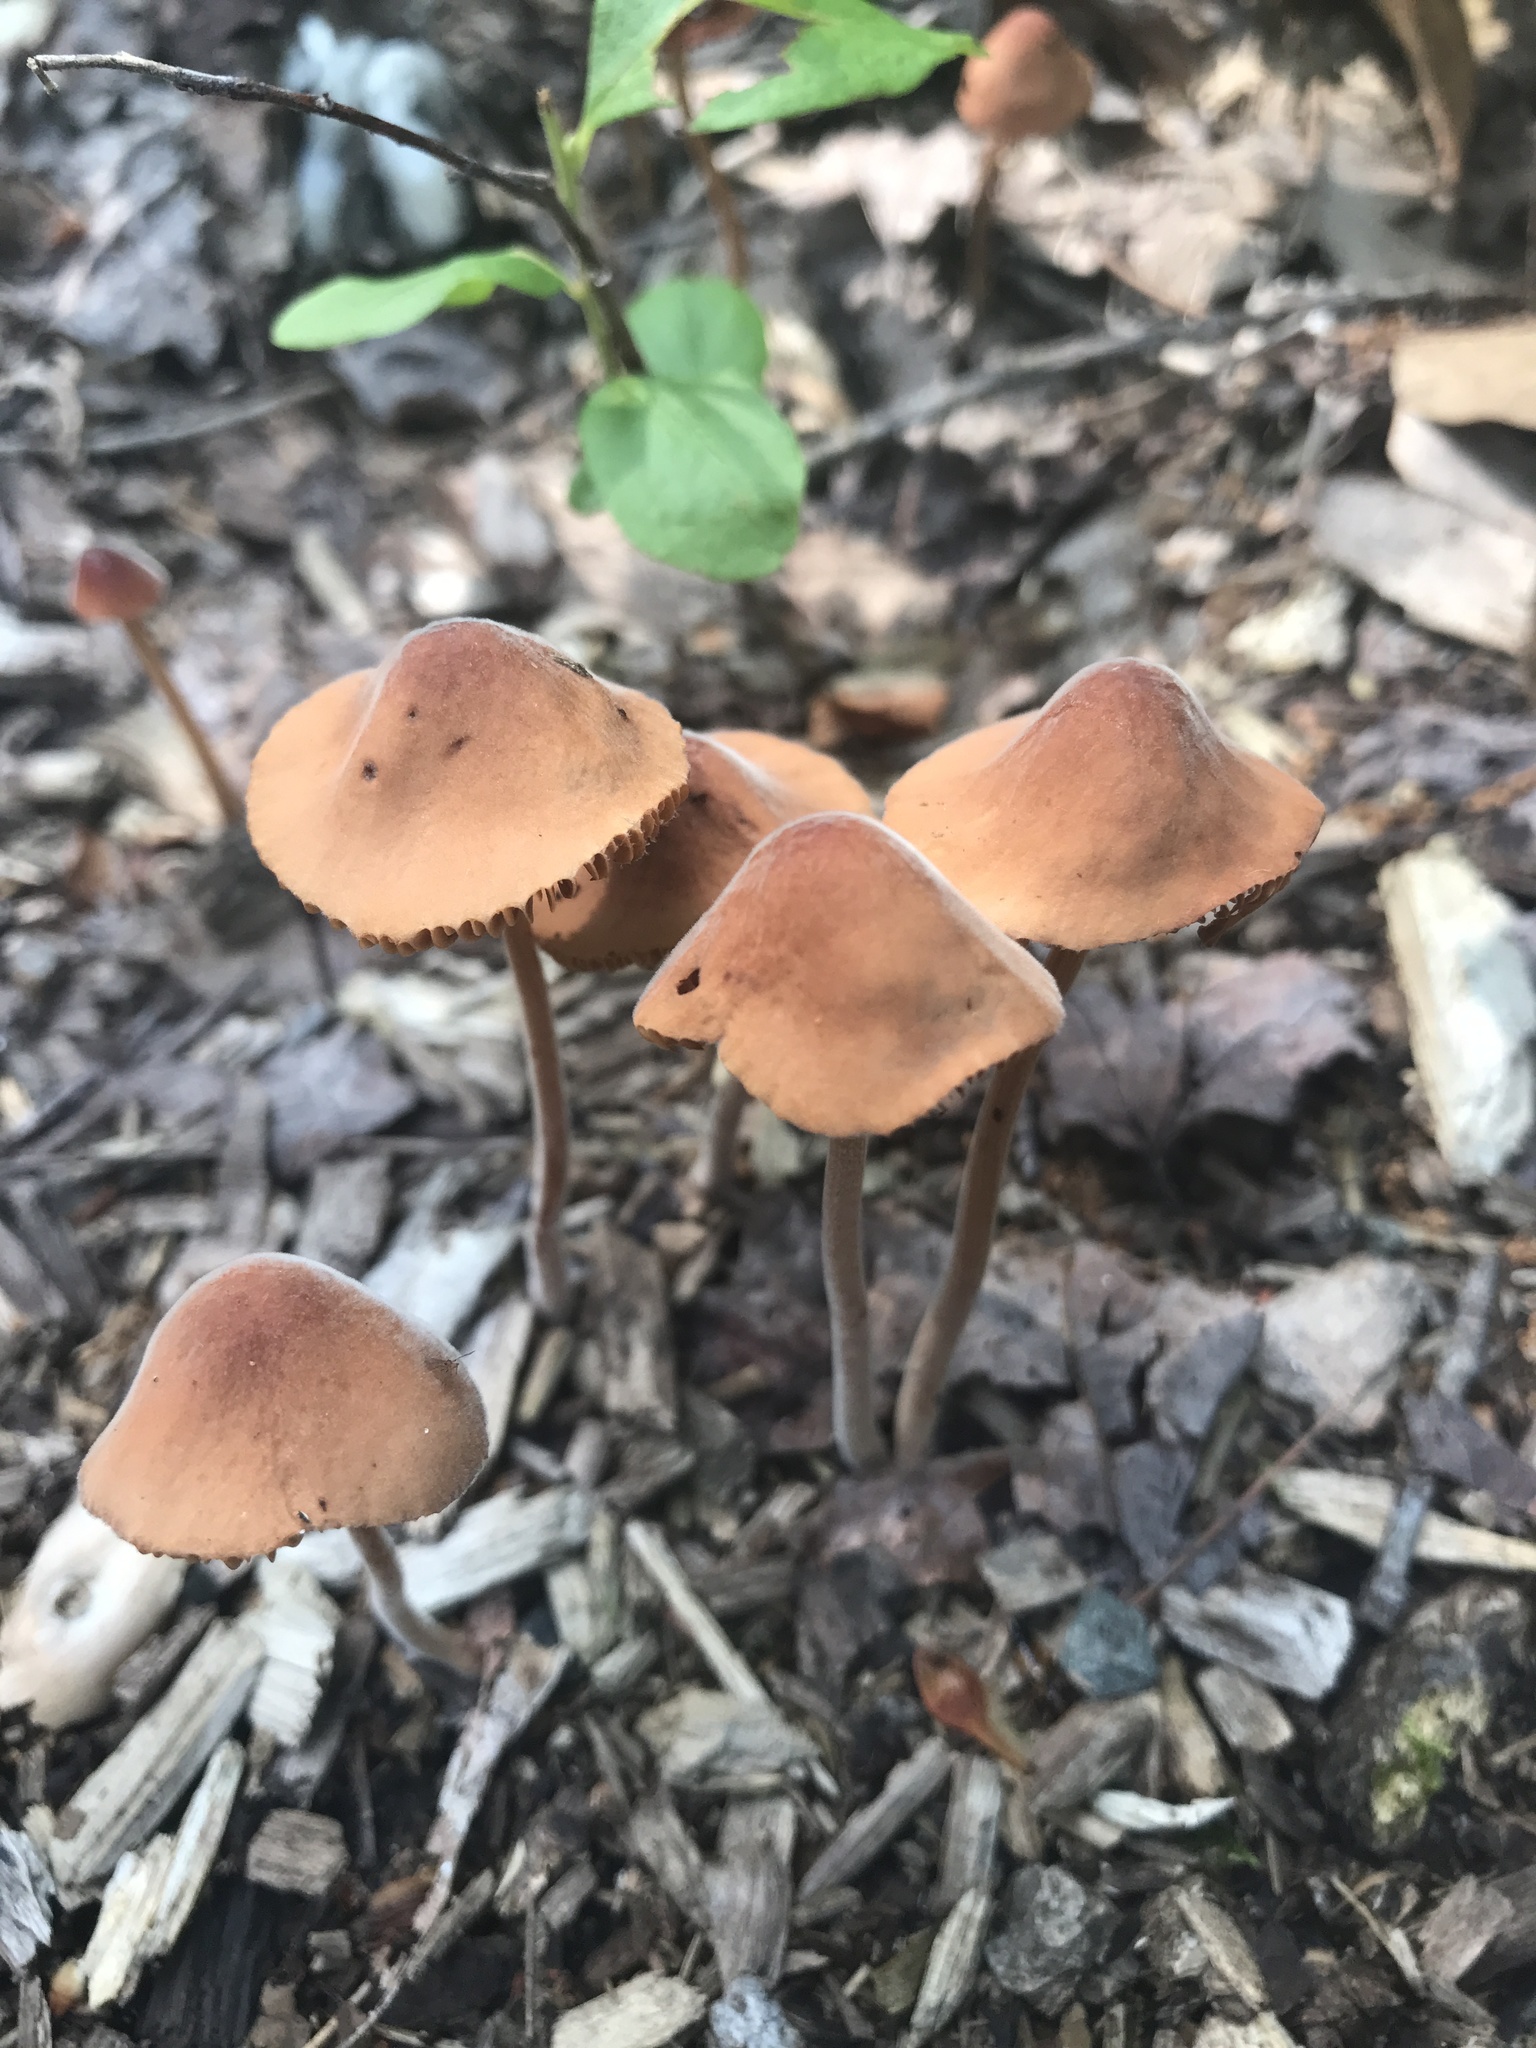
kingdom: Fungi
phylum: Basidiomycota
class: Agaricomycetes
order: Agaricales
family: Bolbitiaceae
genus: Conocybe
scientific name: Conocybe tenera
